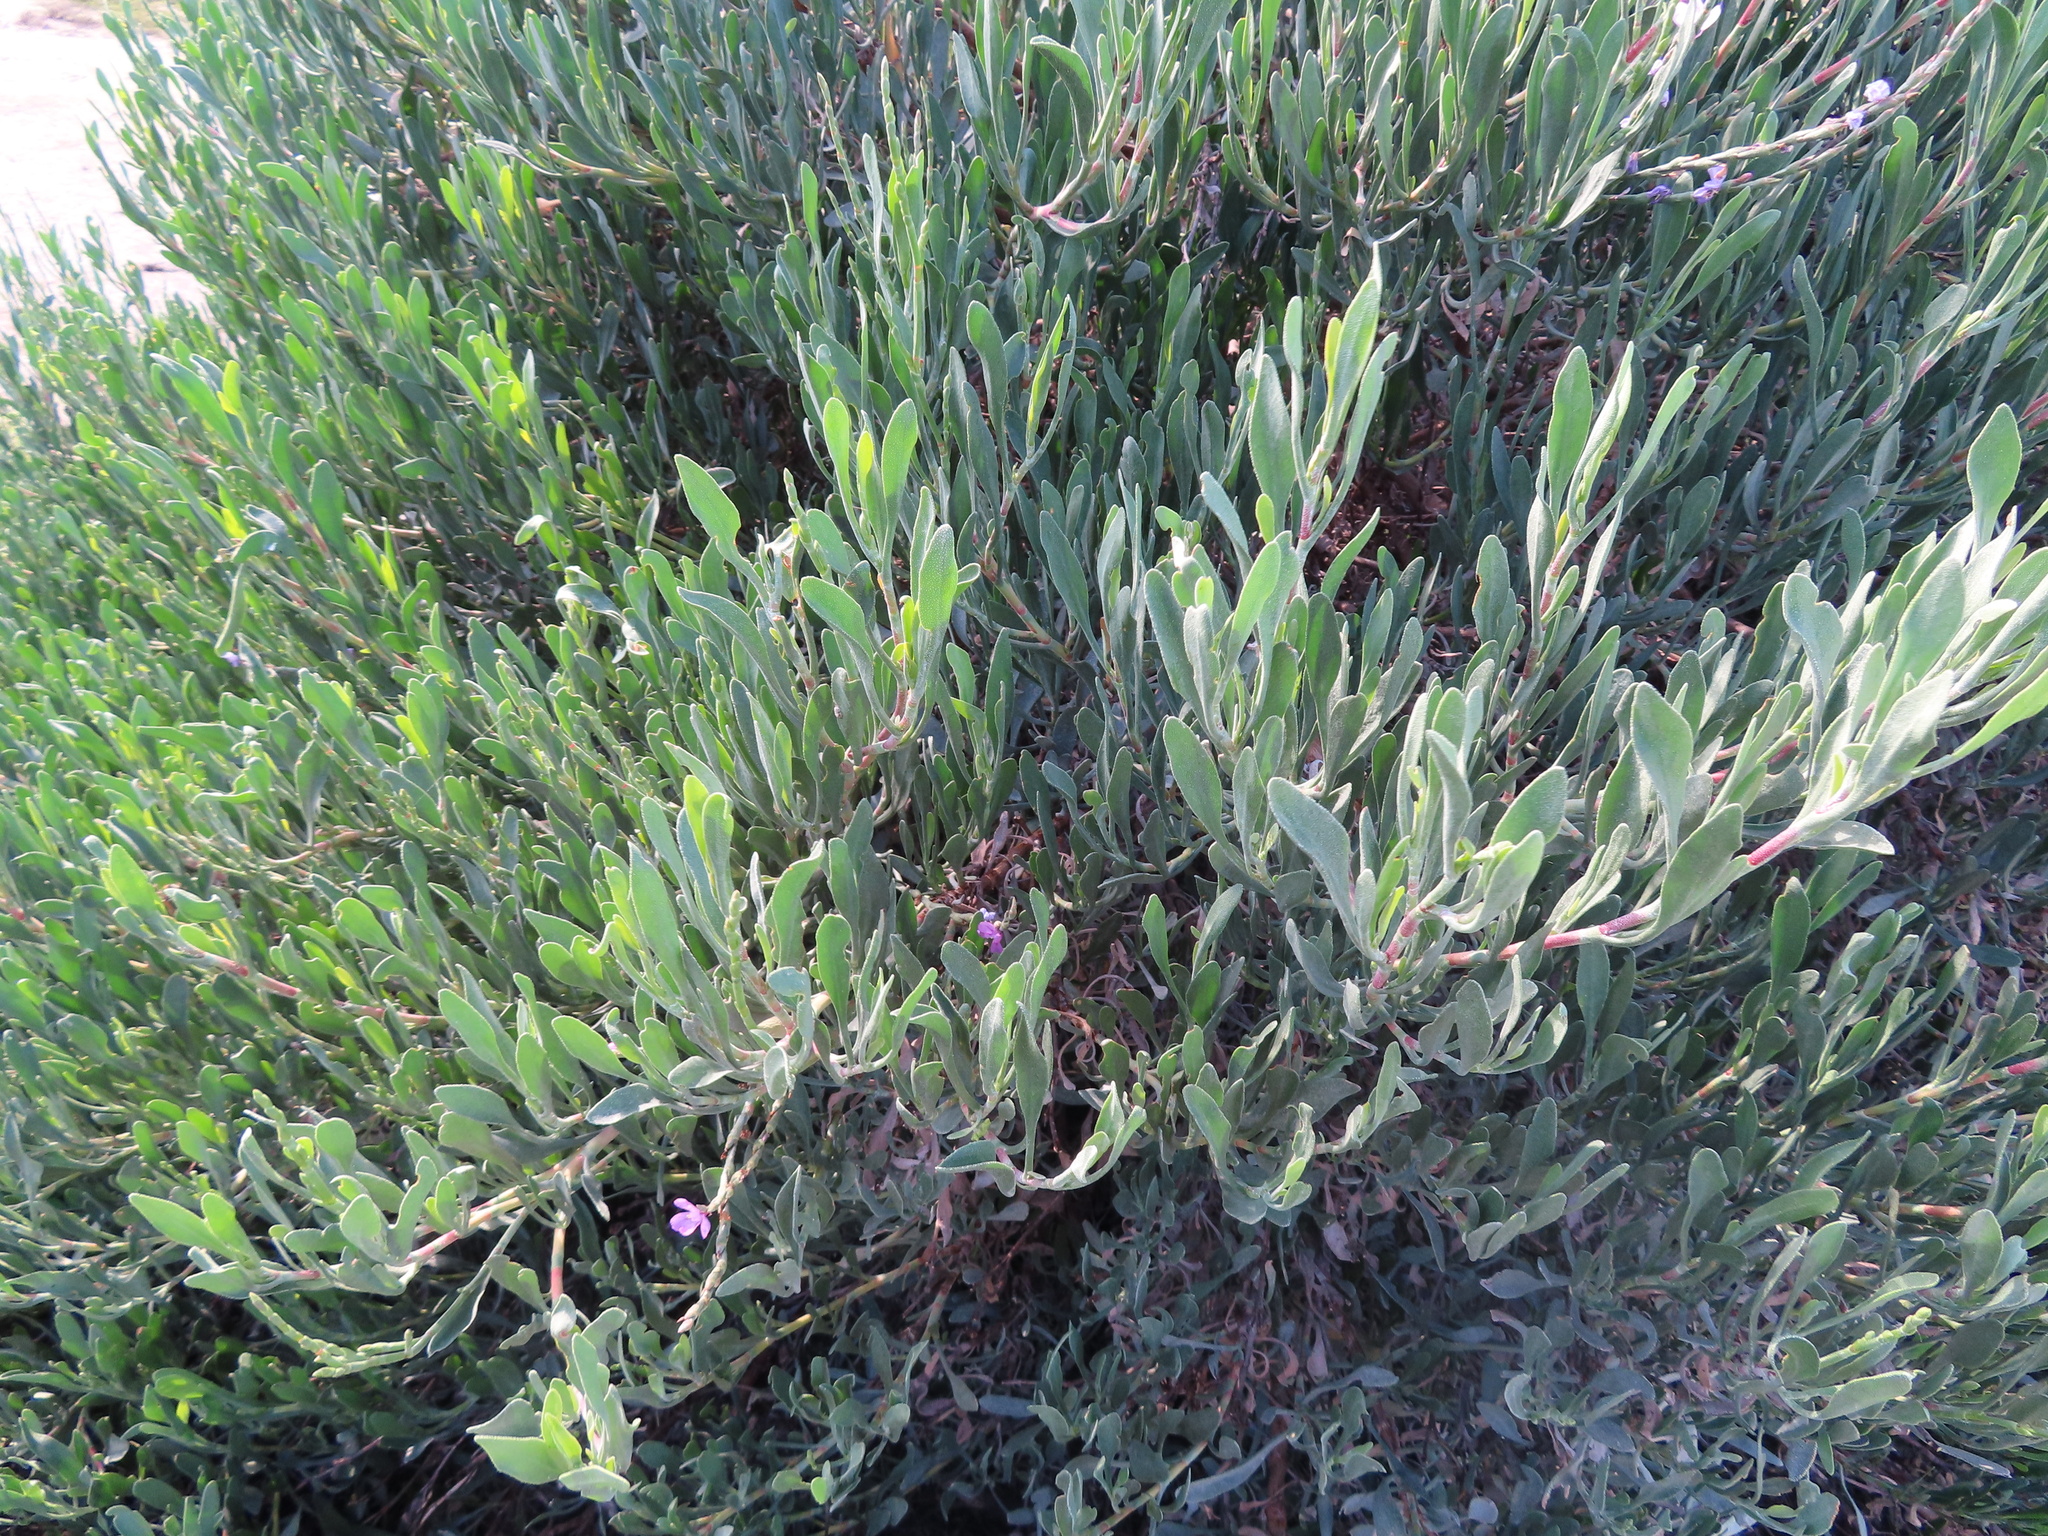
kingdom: Plantae
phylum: Tracheophyta
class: Magnoliopsida
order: Caryophyllales
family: Plumbaginaceae
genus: Limoniastrum
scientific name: Limoniastrum monopetalum
